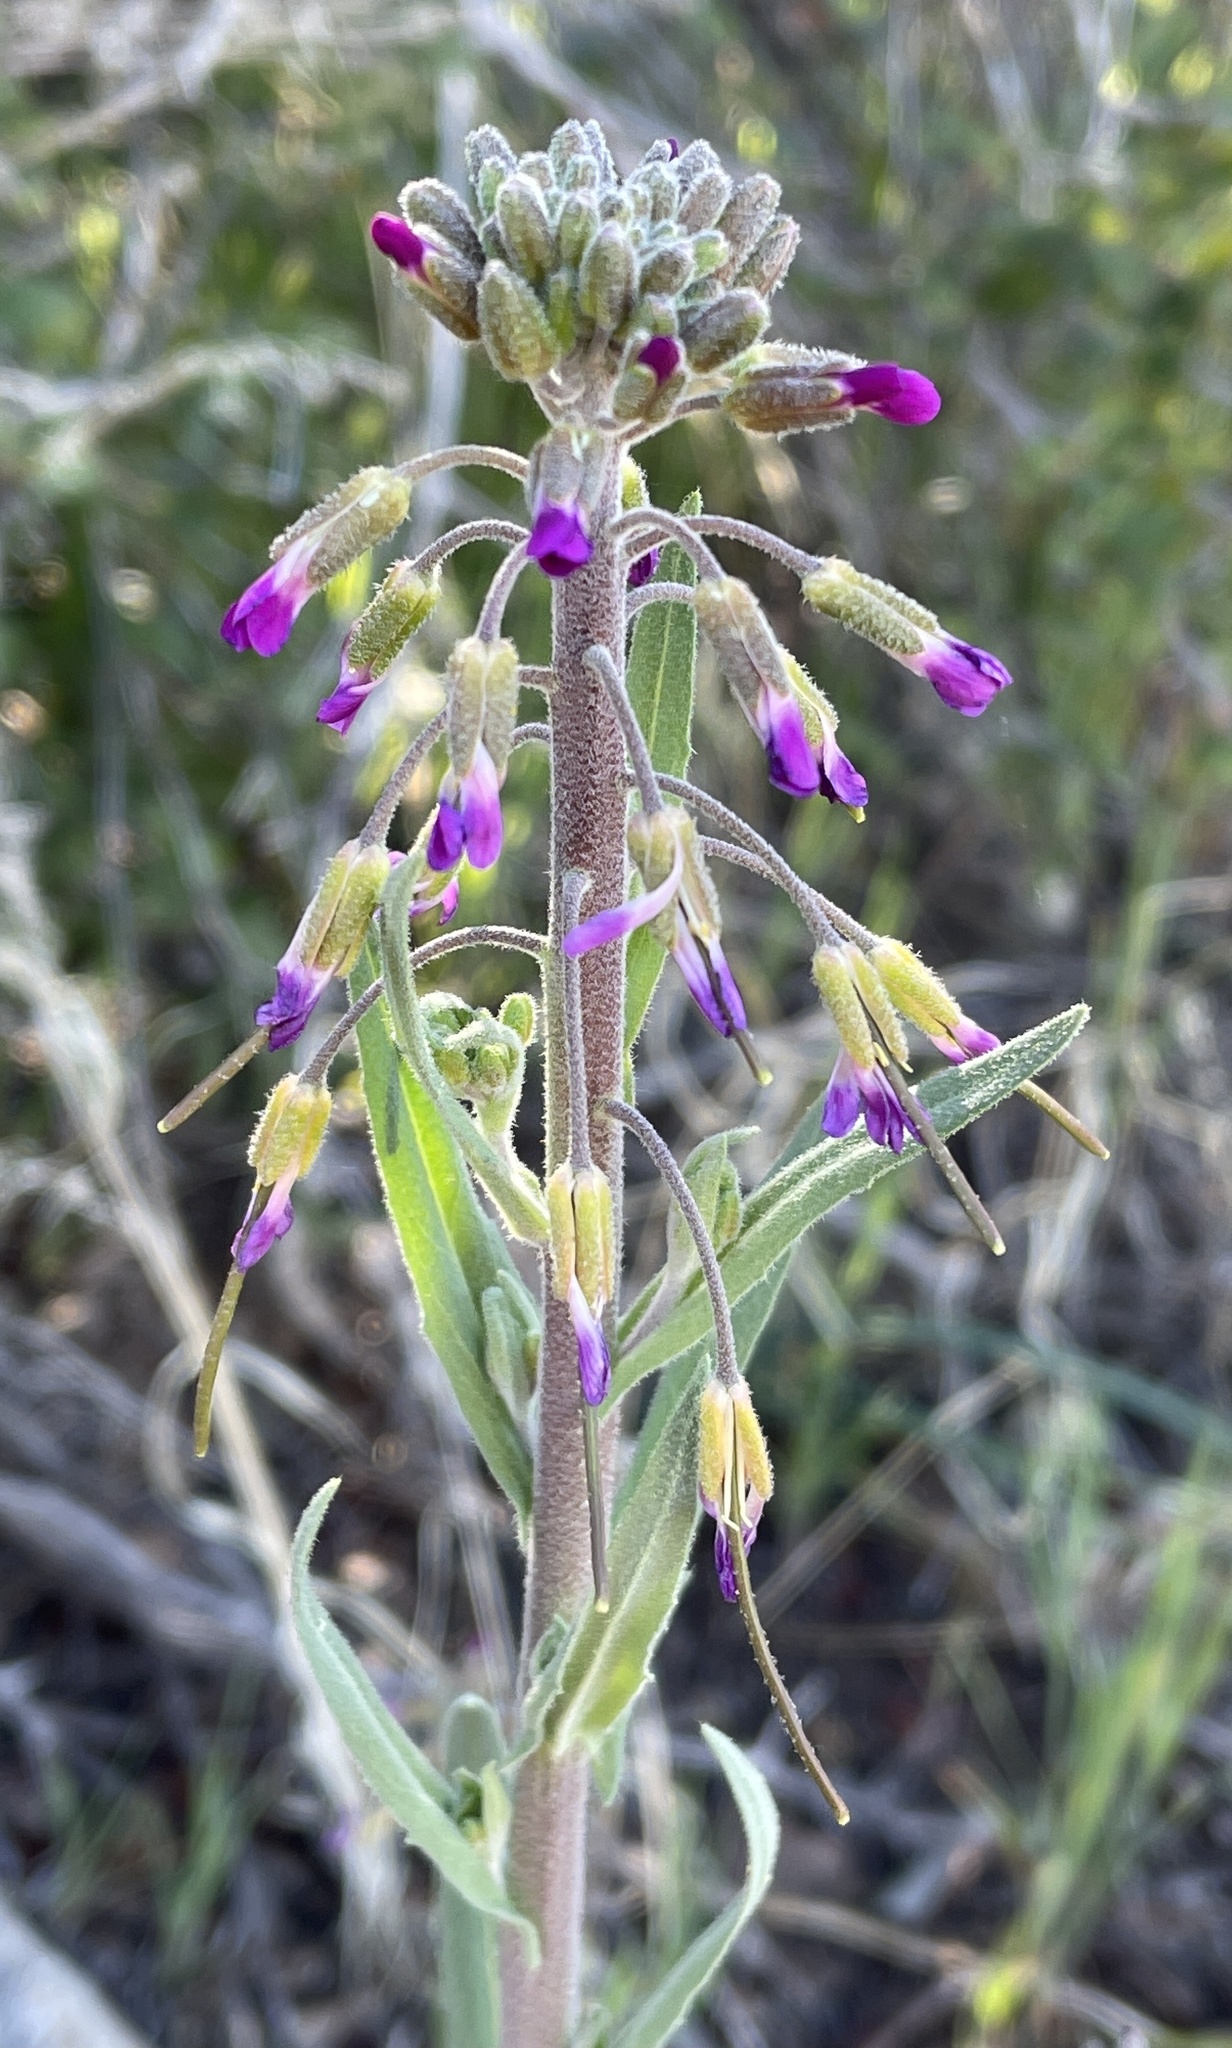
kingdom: Plantae
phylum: Tracheophyta
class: Magnoliopsida
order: Brassicales
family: Brassicaceae
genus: Boechera
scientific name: Boechera californica
